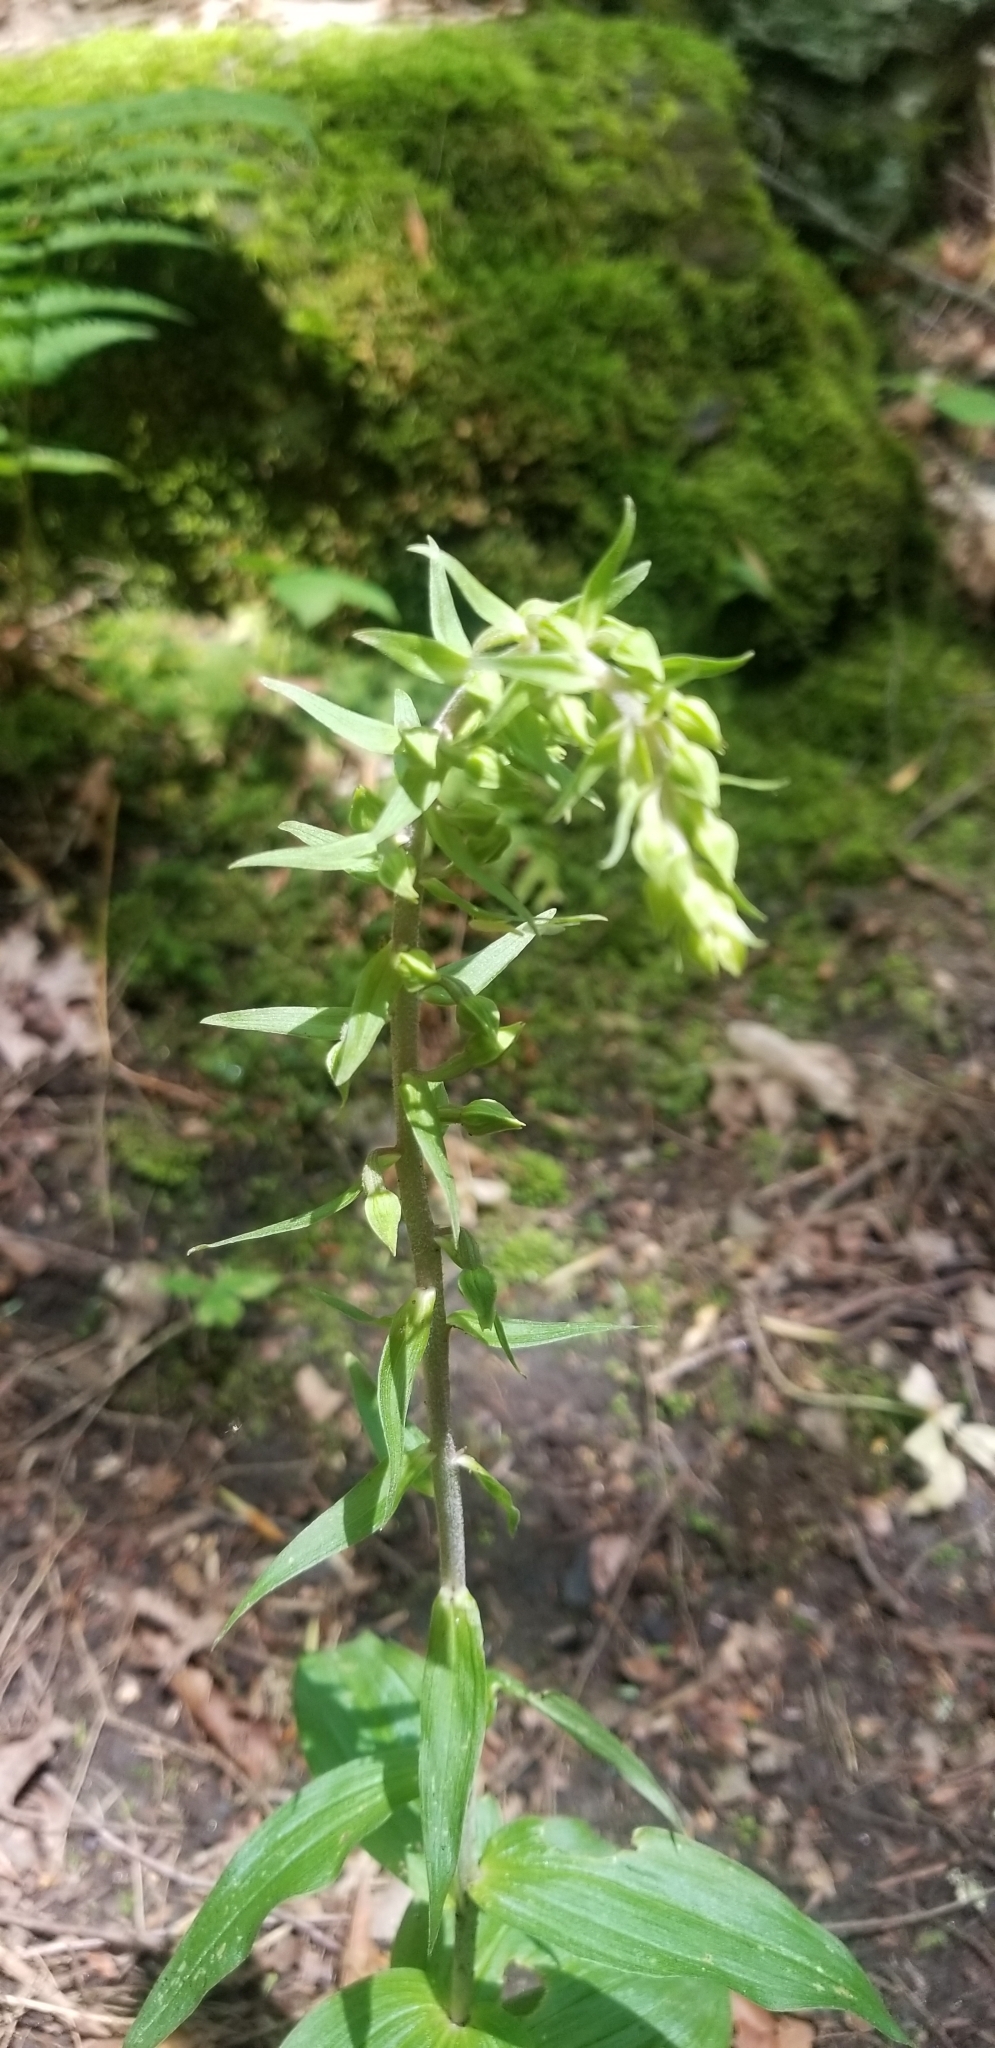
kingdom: Plantae
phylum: Tracheophyta
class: Liliopsida
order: Asparagales
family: Orchidaceae
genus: Epipactis
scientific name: Epipactis helleborine
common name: Broad-leaved helleborine
